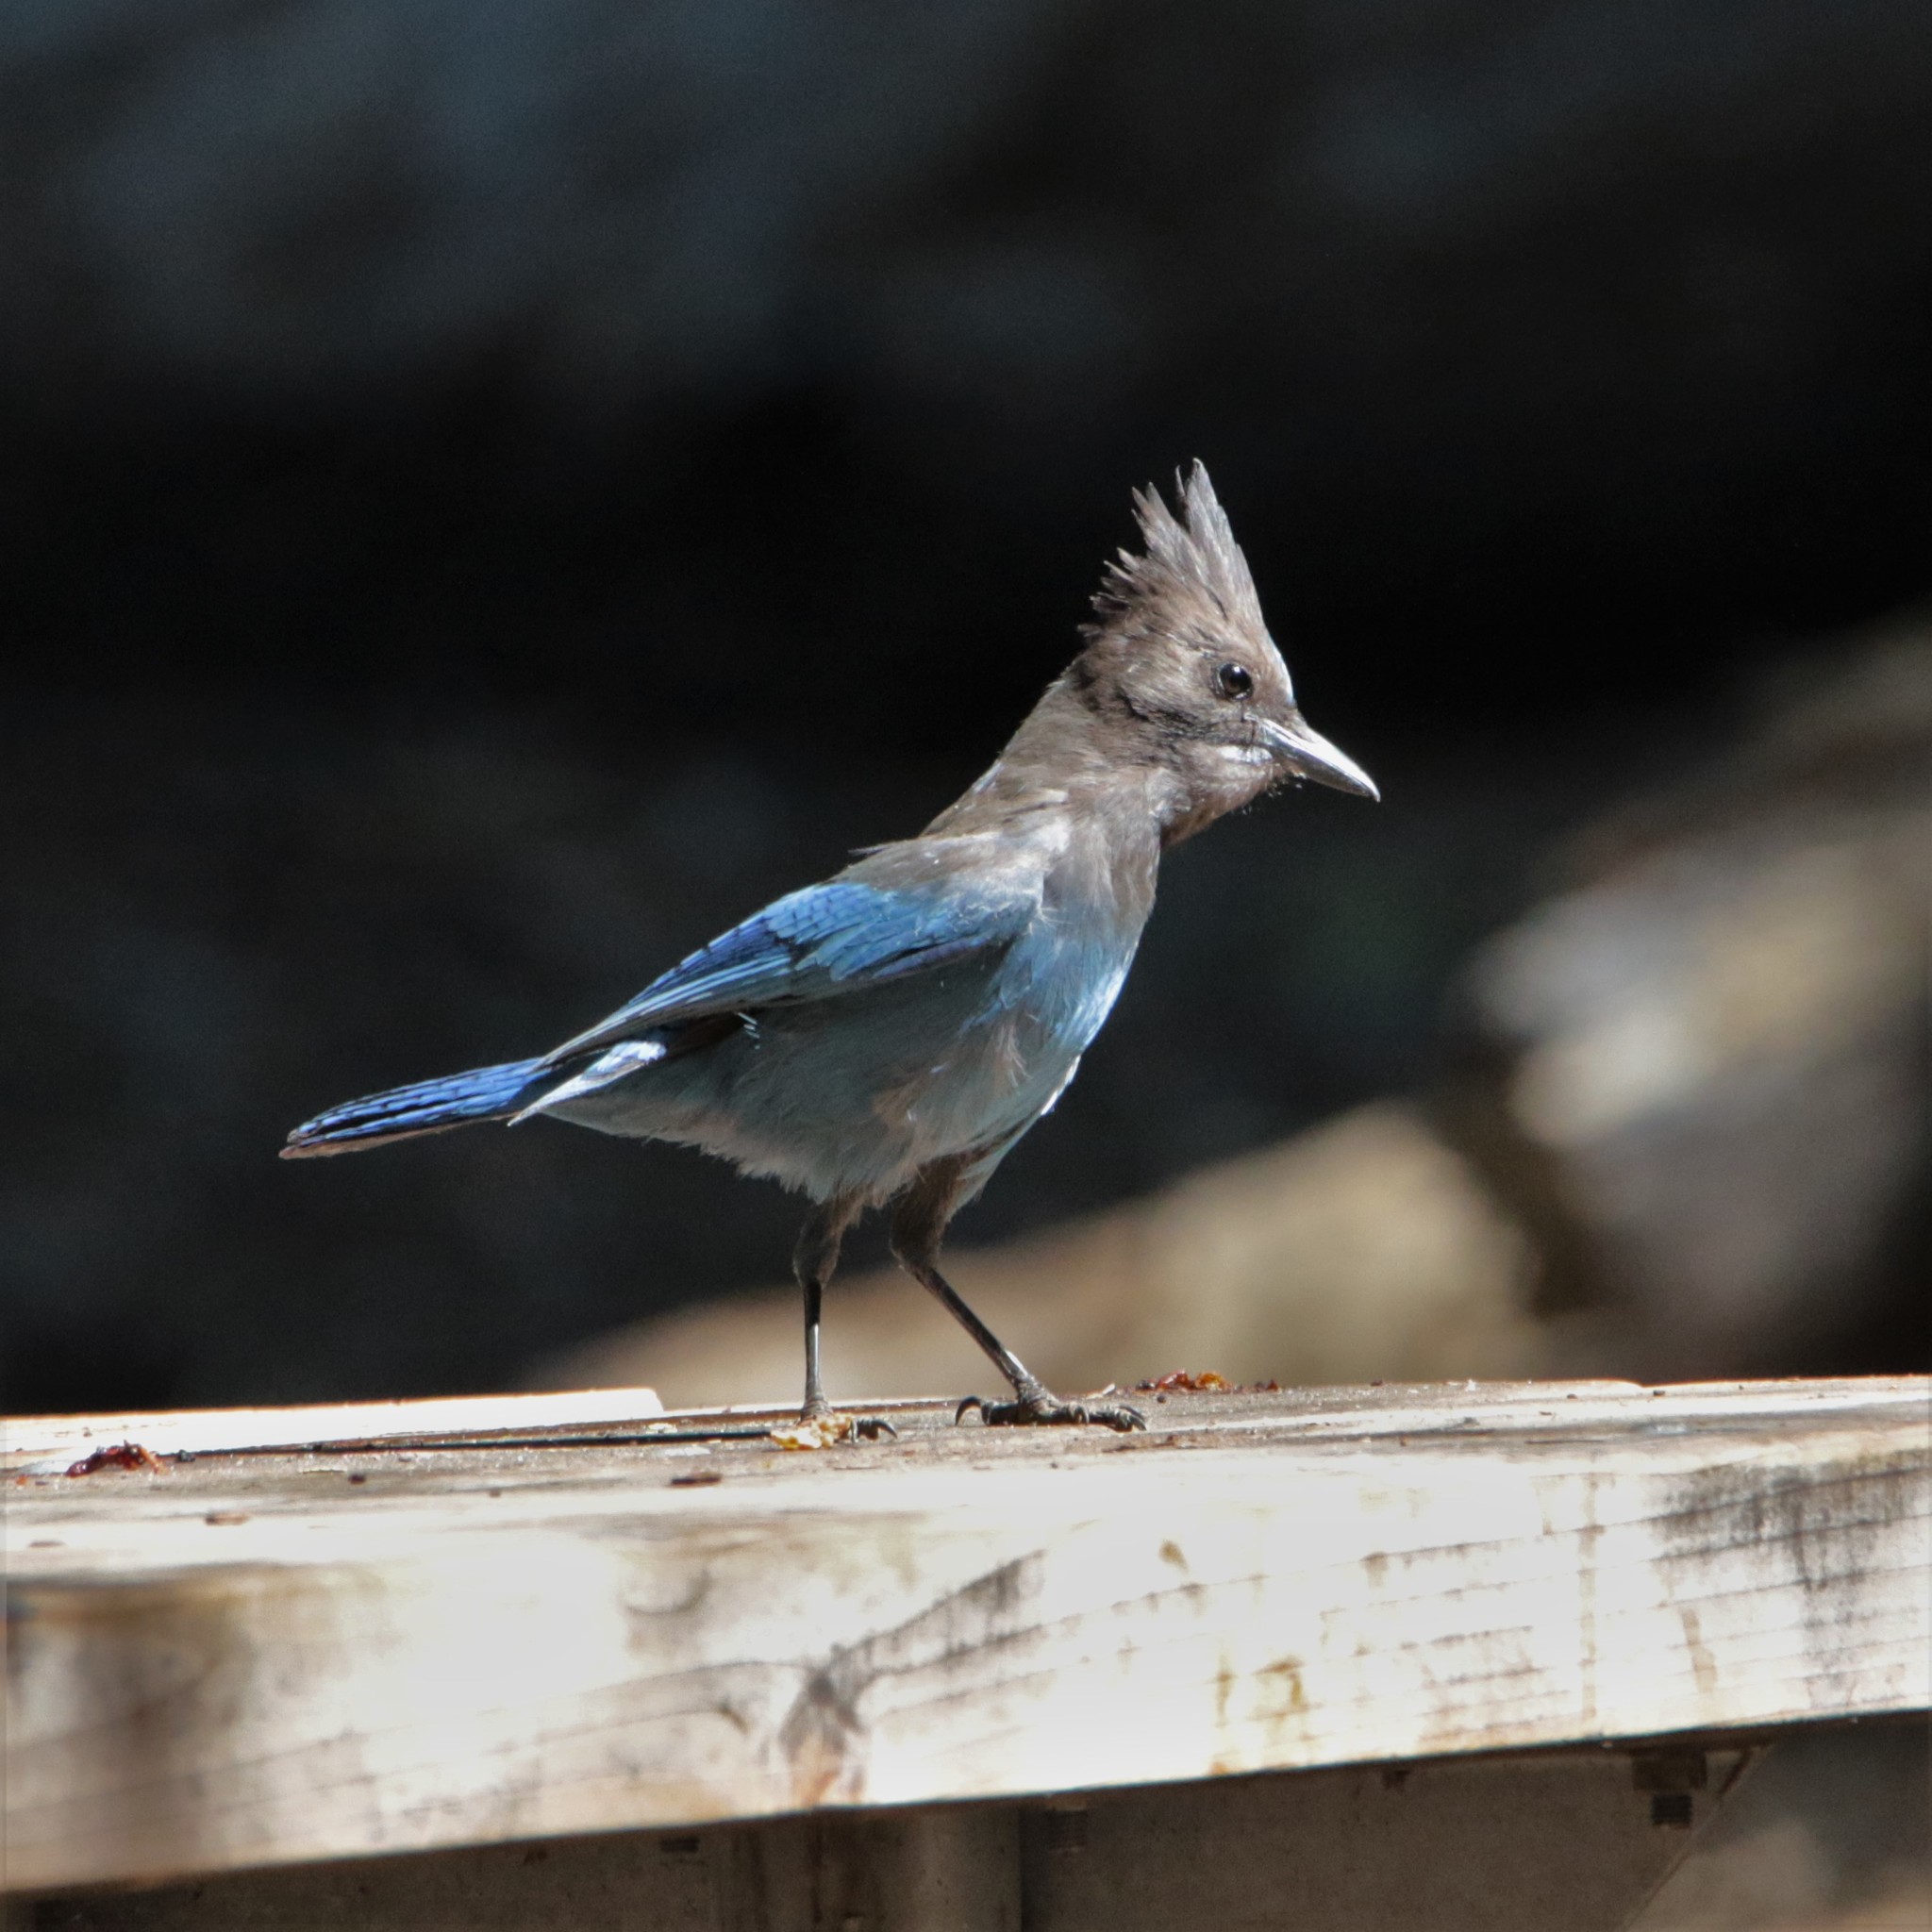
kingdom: Animalia
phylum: Chordata
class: Aves
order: Passeriformes
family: Corvidae
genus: Cyanocitta
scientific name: Cyanocitta stelleri
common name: Steller's jay
